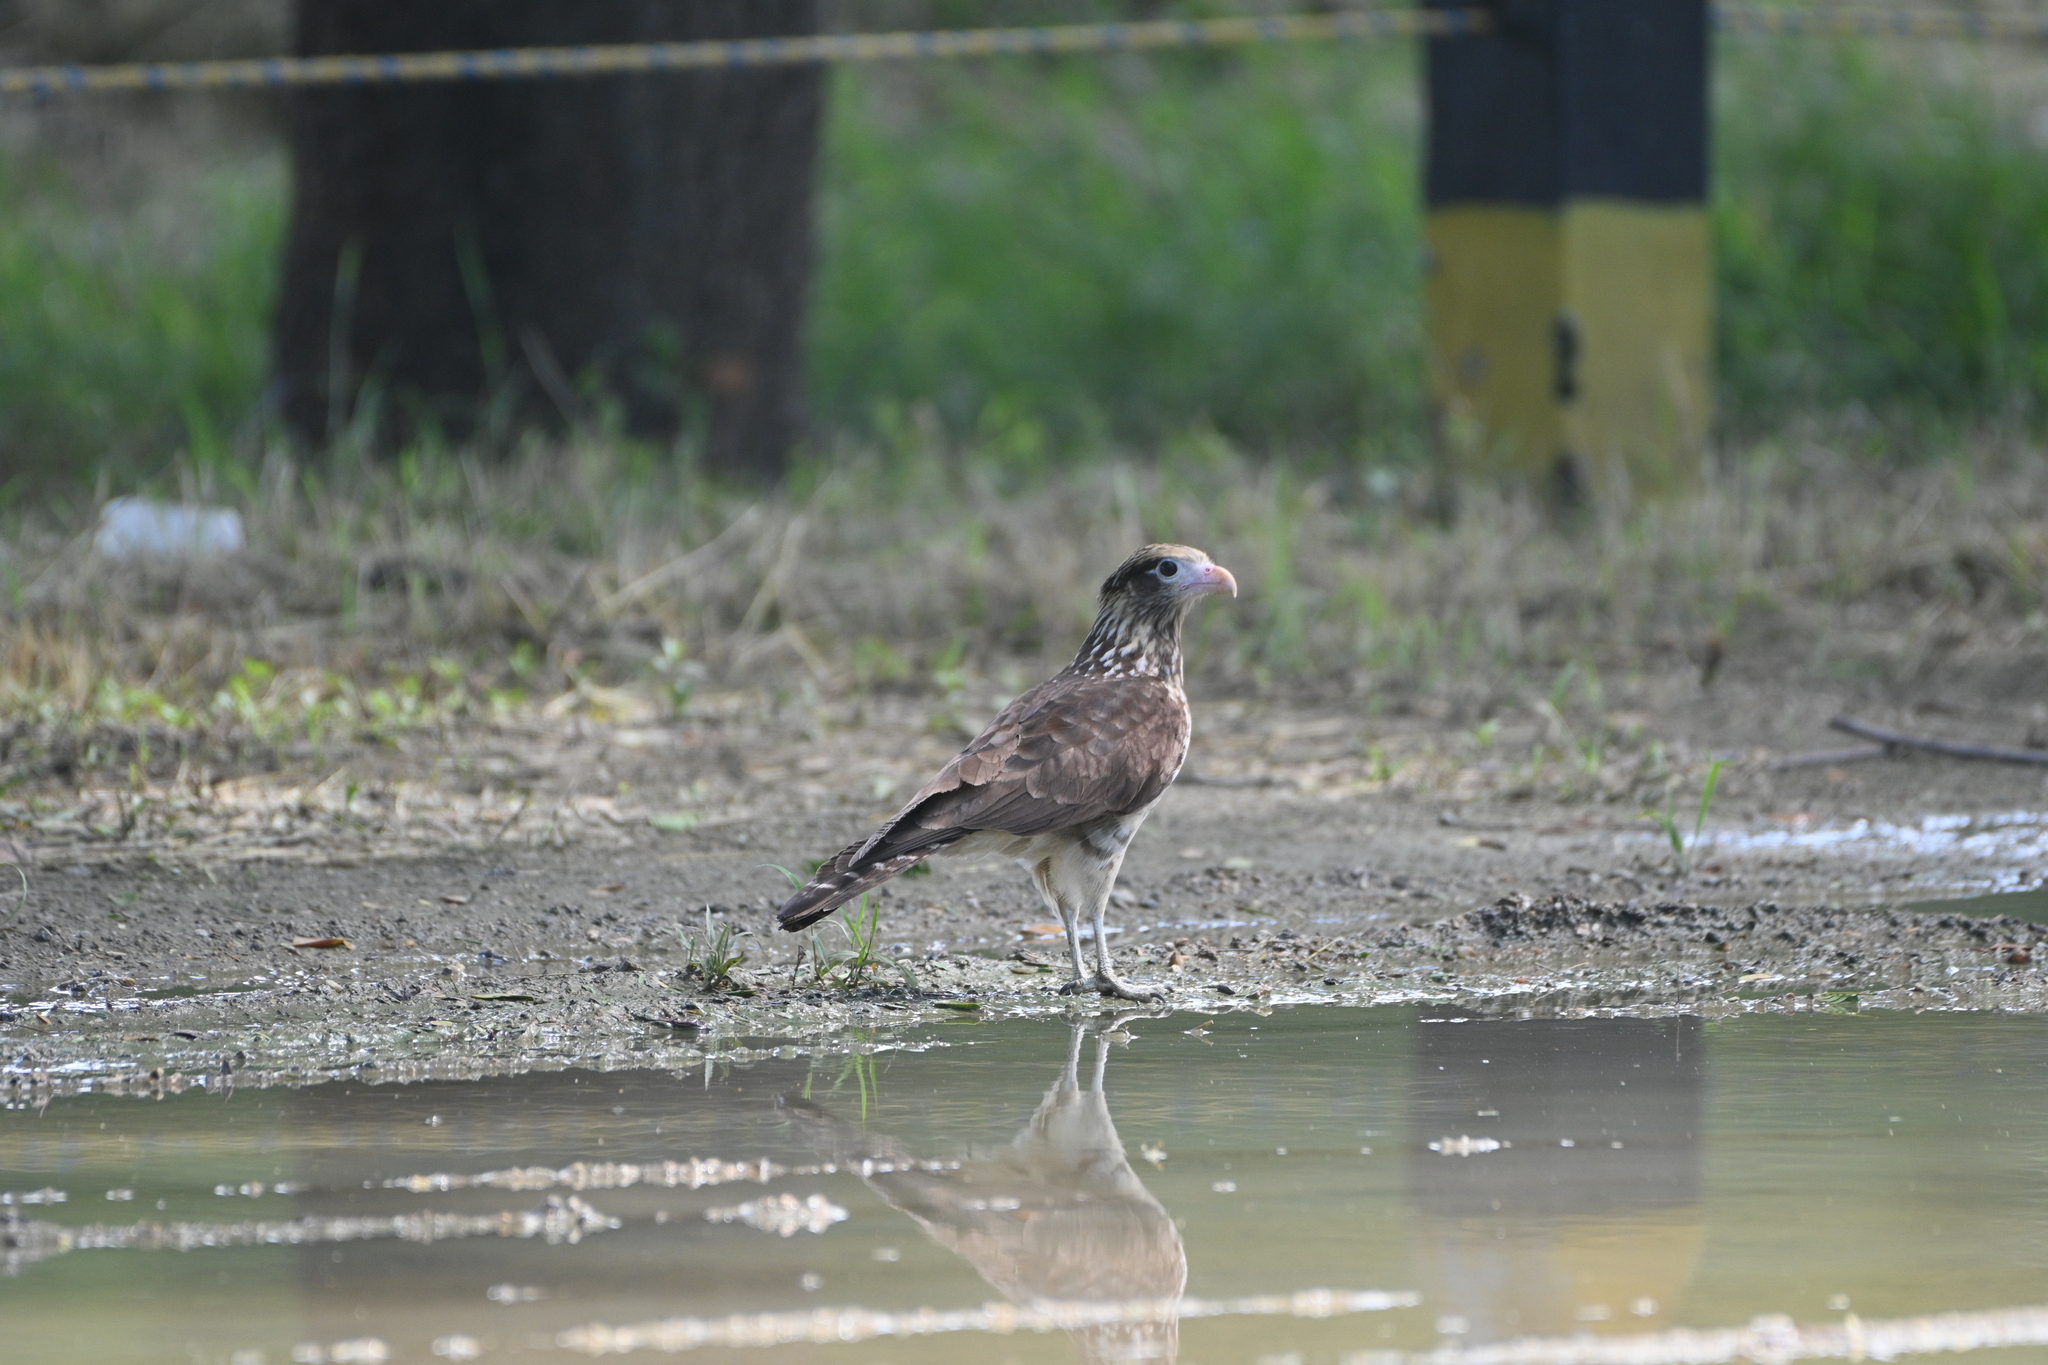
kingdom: Animalia
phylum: Chordata
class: Aves
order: Falconiformes
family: Falconidae
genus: Daptrius
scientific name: Daptrius
